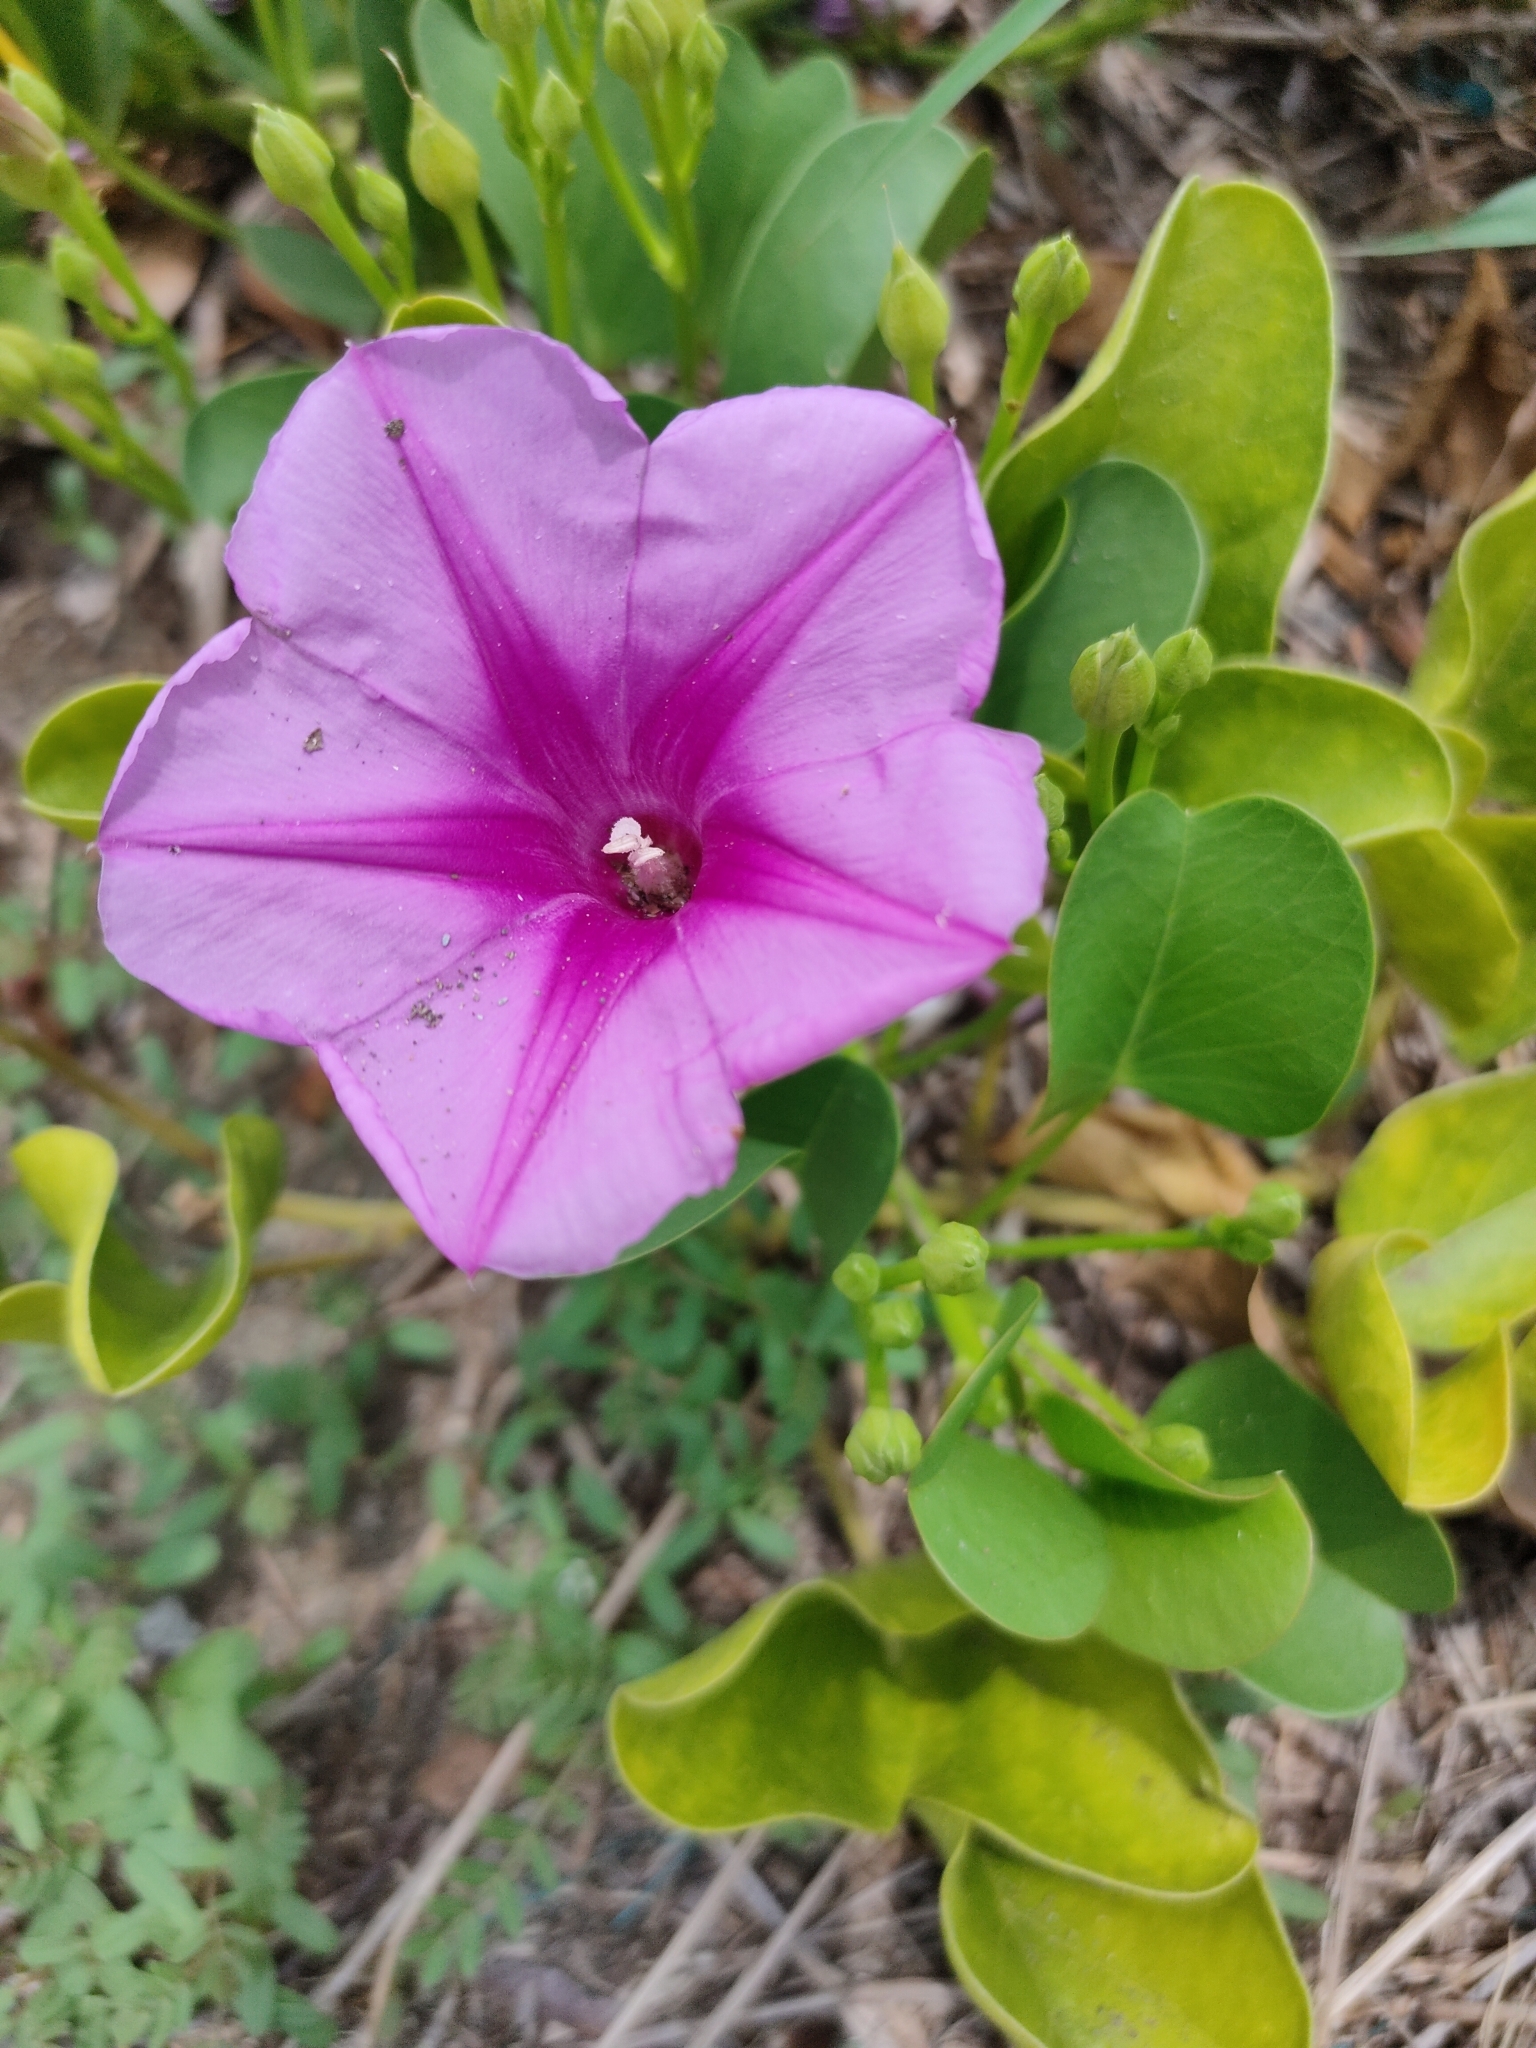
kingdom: Plantae
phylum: Tracheophyta
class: Magnoliopsida
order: Solanales
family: Convolvulaceae
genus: Ipomoea
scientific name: Ipomoea pes-caprae
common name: Beach morning glory
